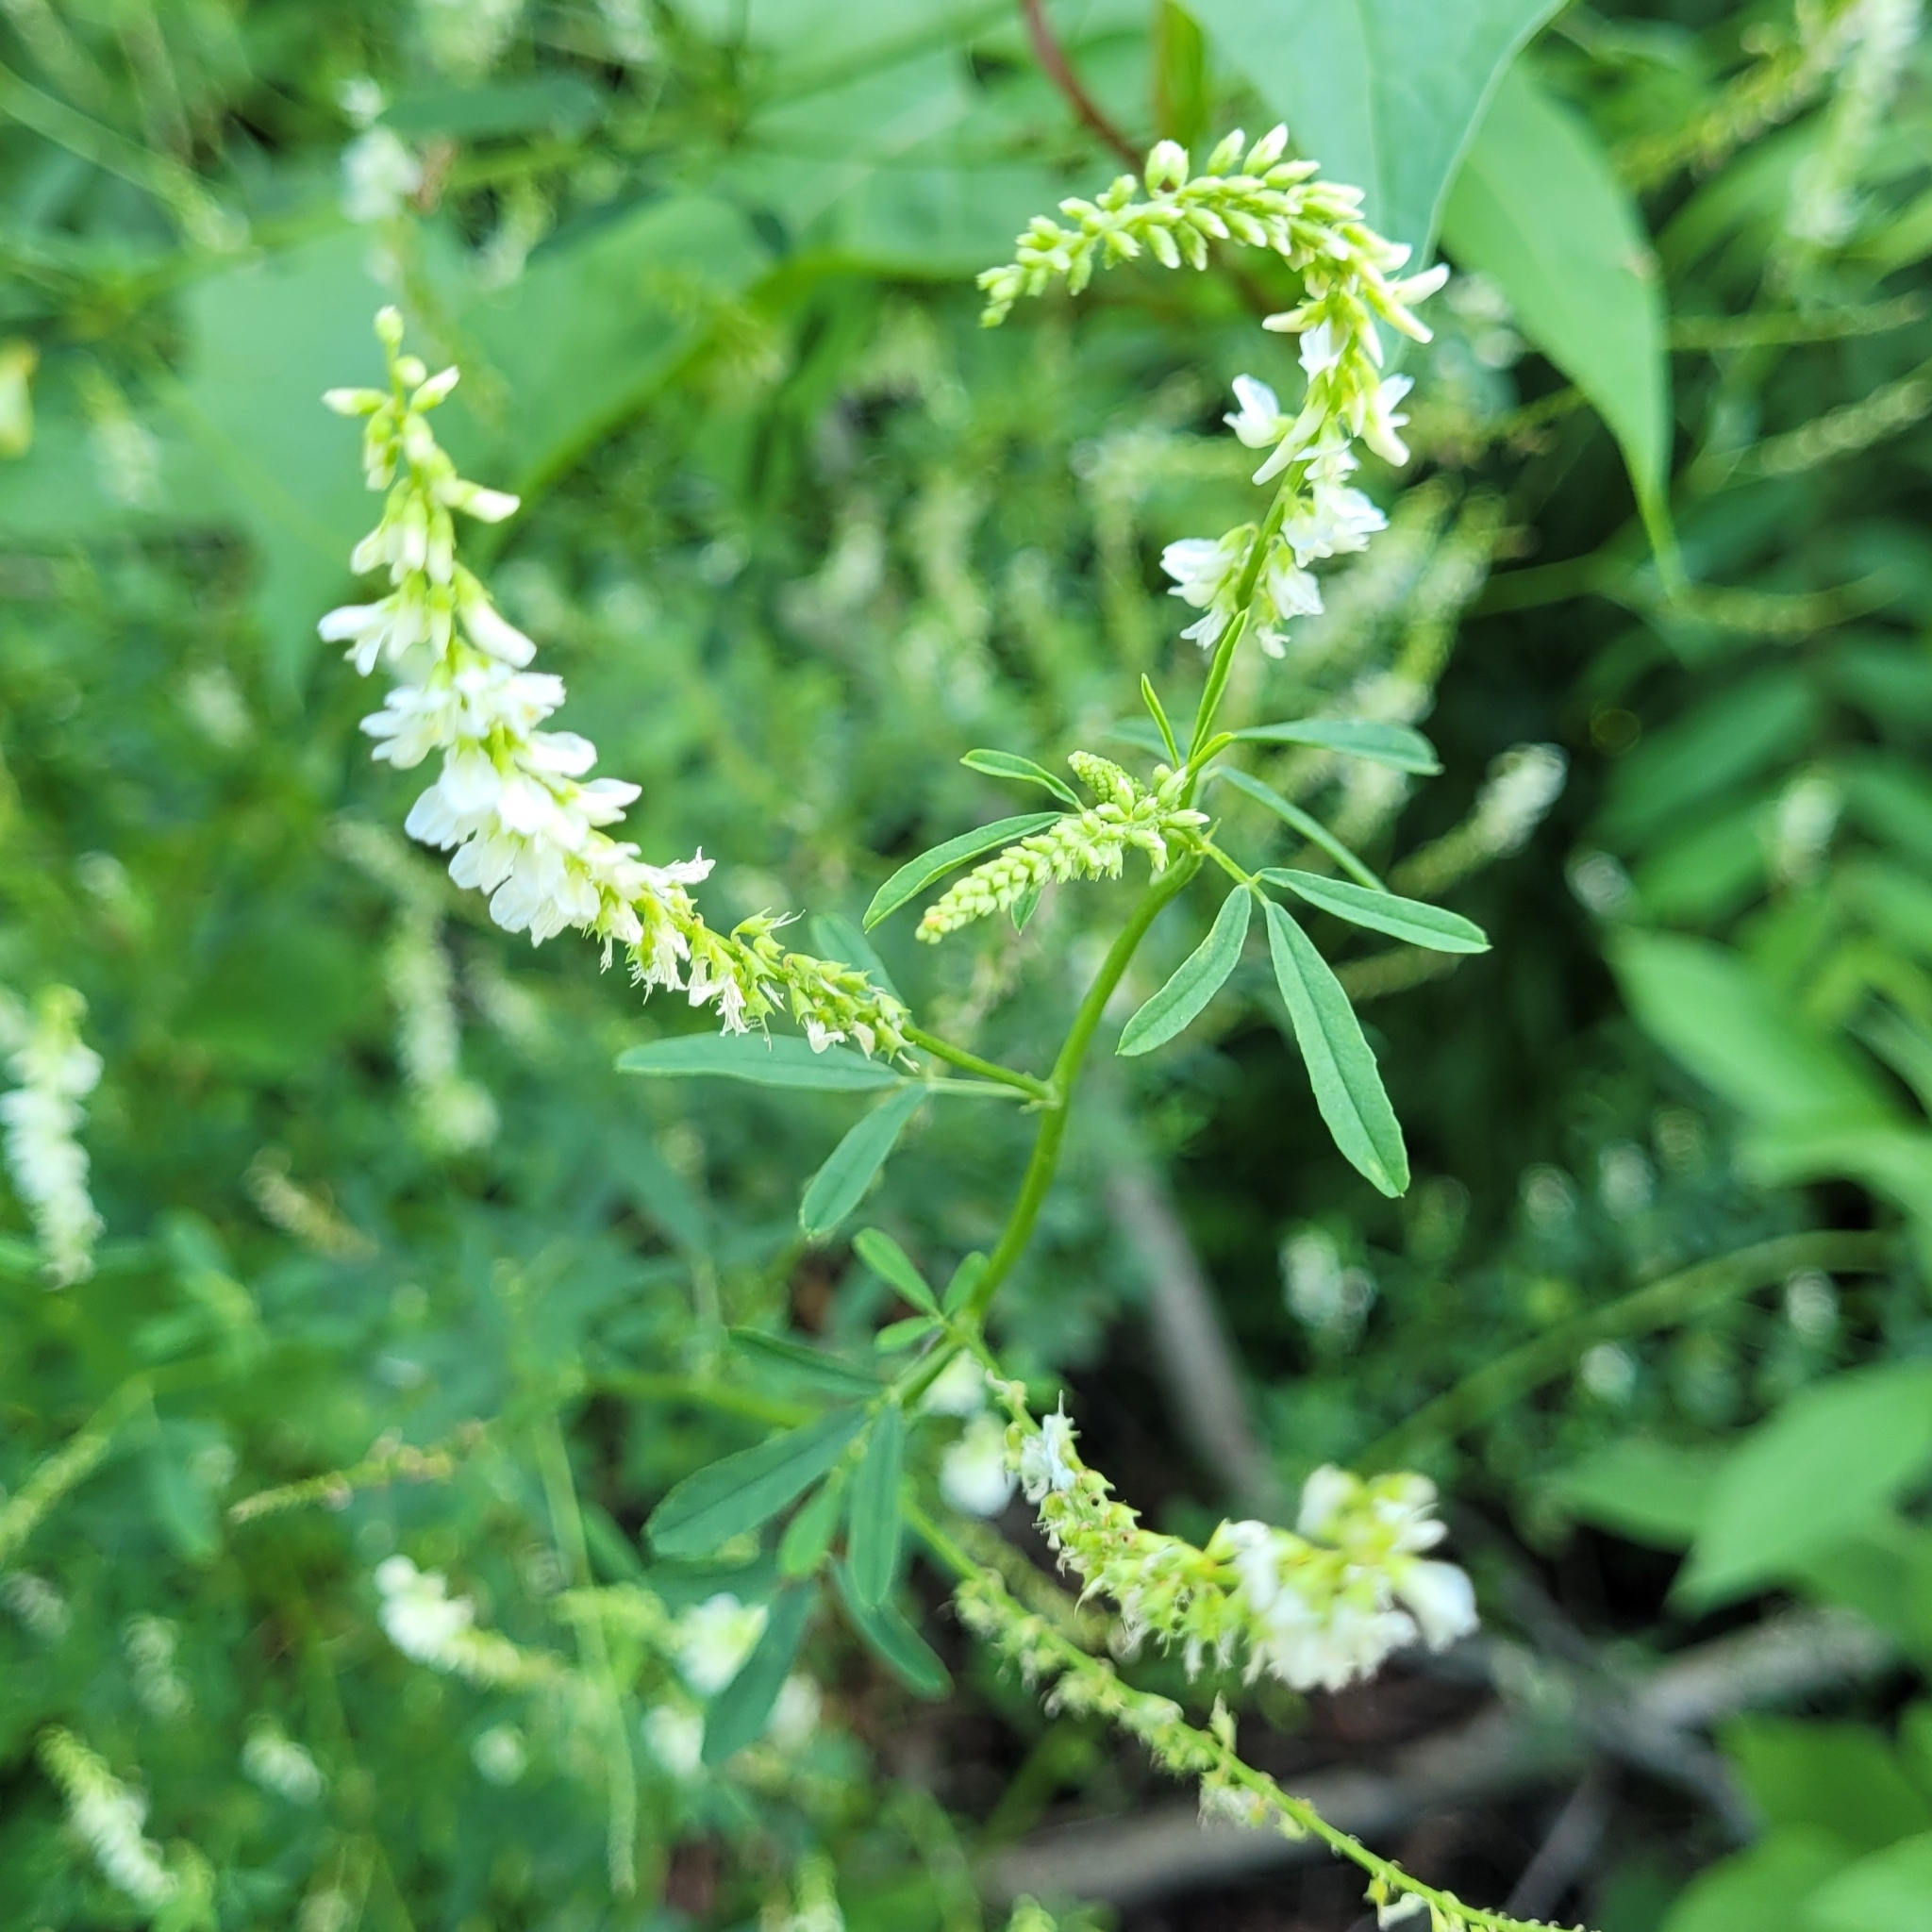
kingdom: Plantae
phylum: Tracheophyta
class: Magnoliopsida
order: Fabales
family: Fabaceae
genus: Melilotus
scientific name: Melilotus albus
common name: White melilot
